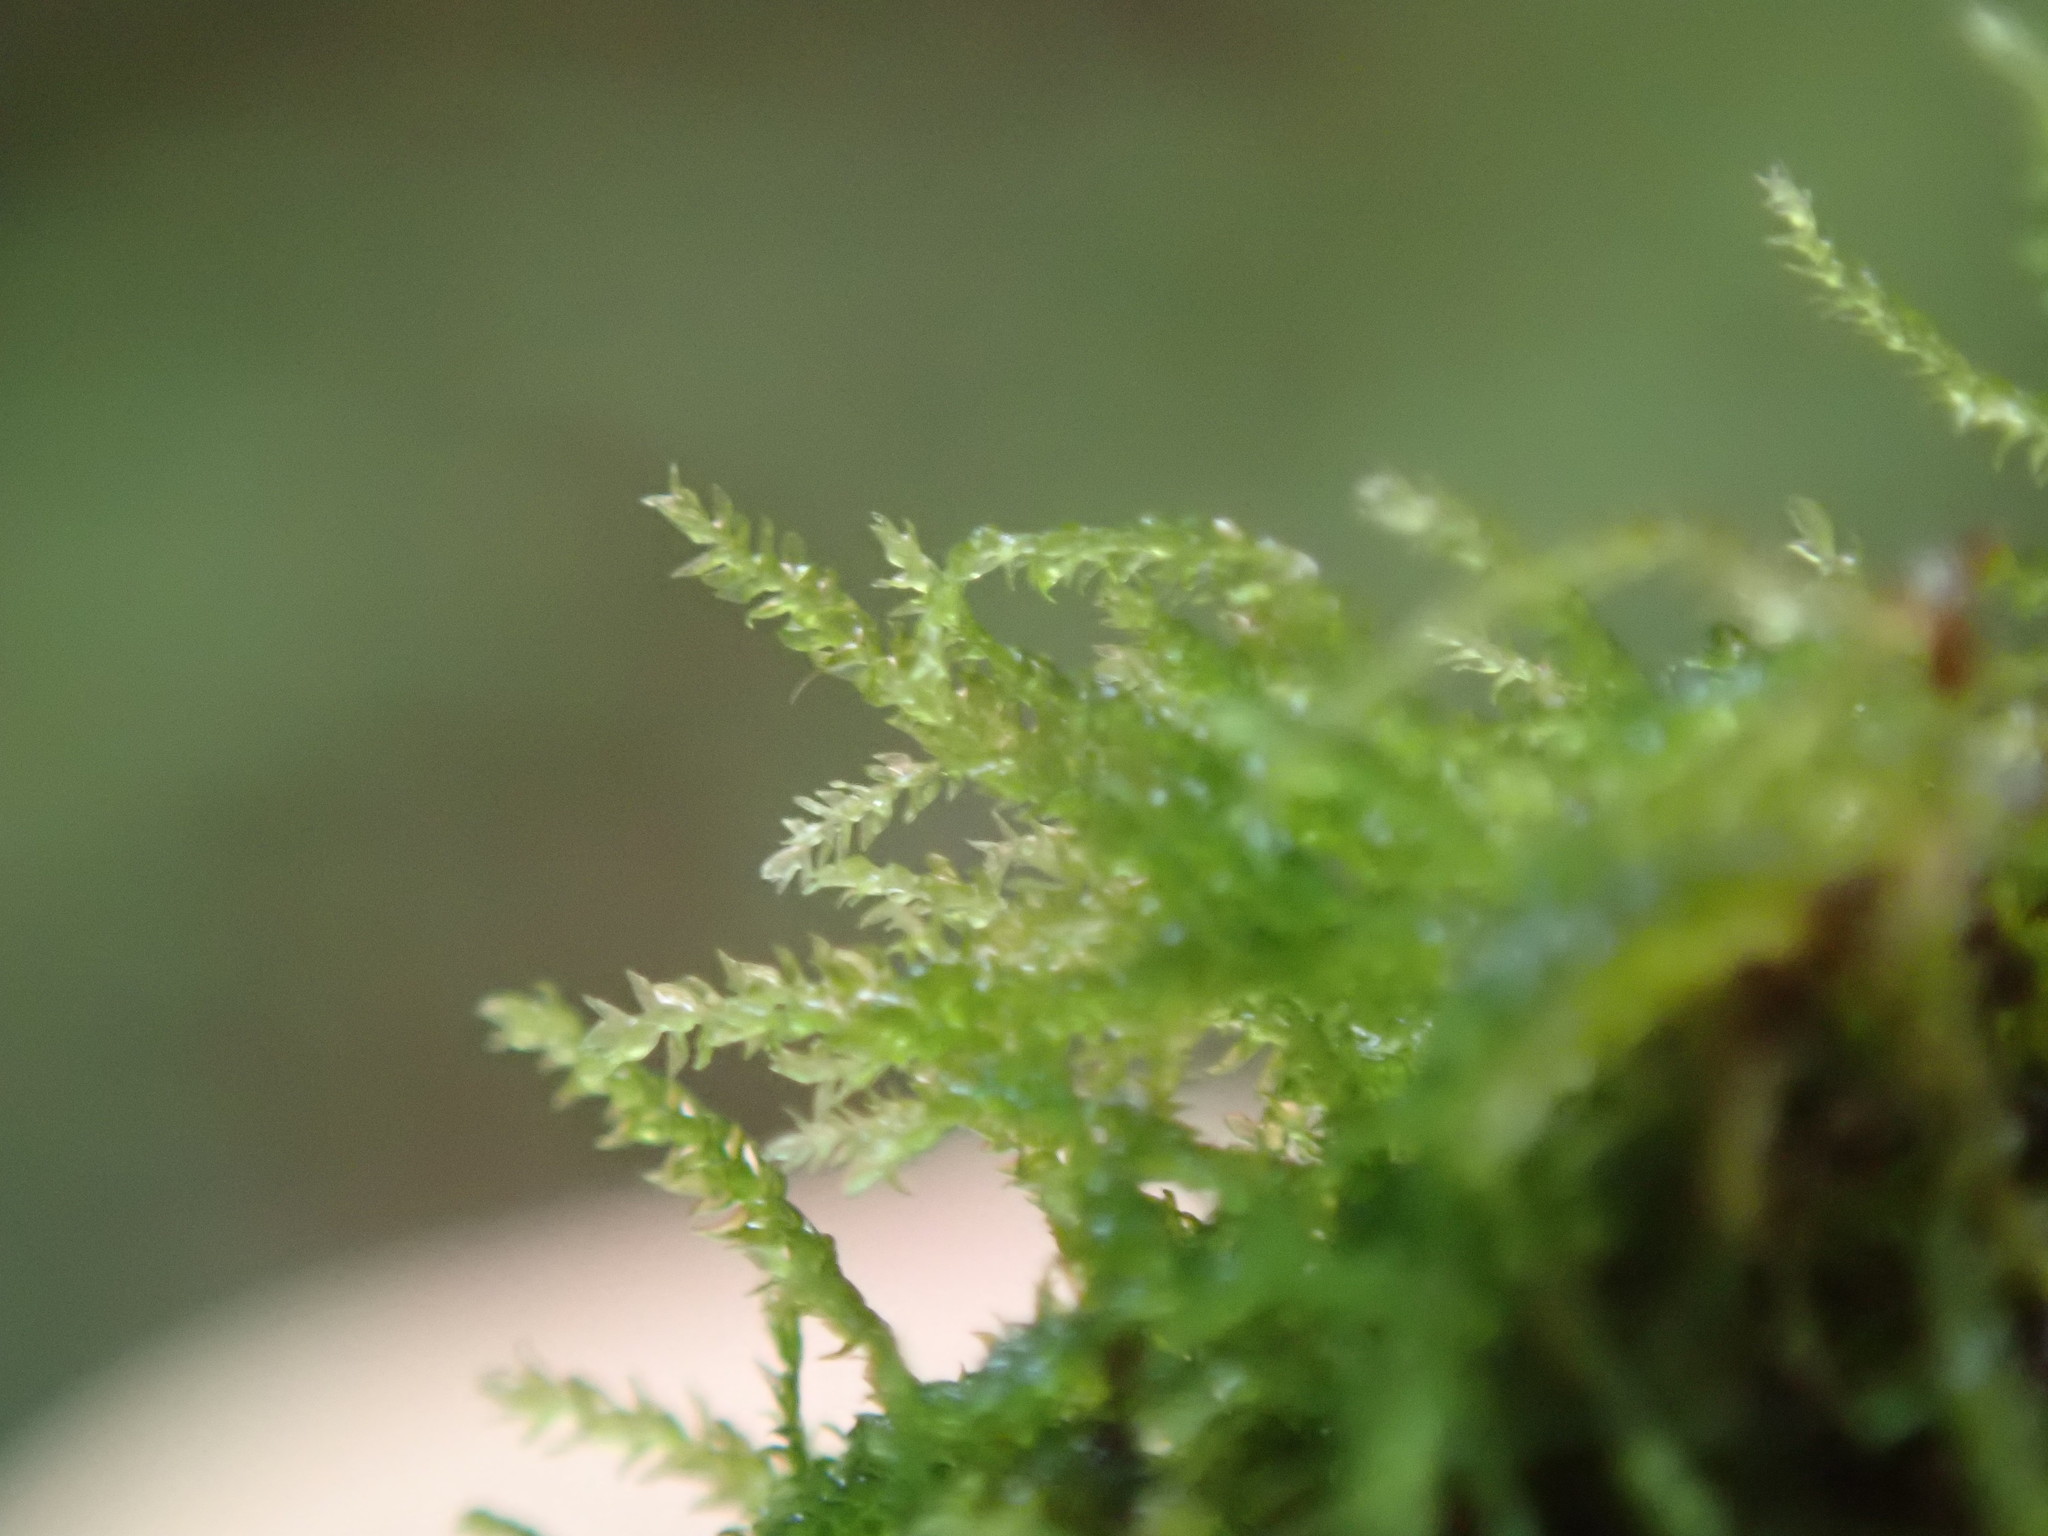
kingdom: Plantae
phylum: Bryophyta
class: Bryopsida
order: Hypnales
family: Lembophyllaceae
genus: Heterocladium
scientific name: Heterocladium macounii
